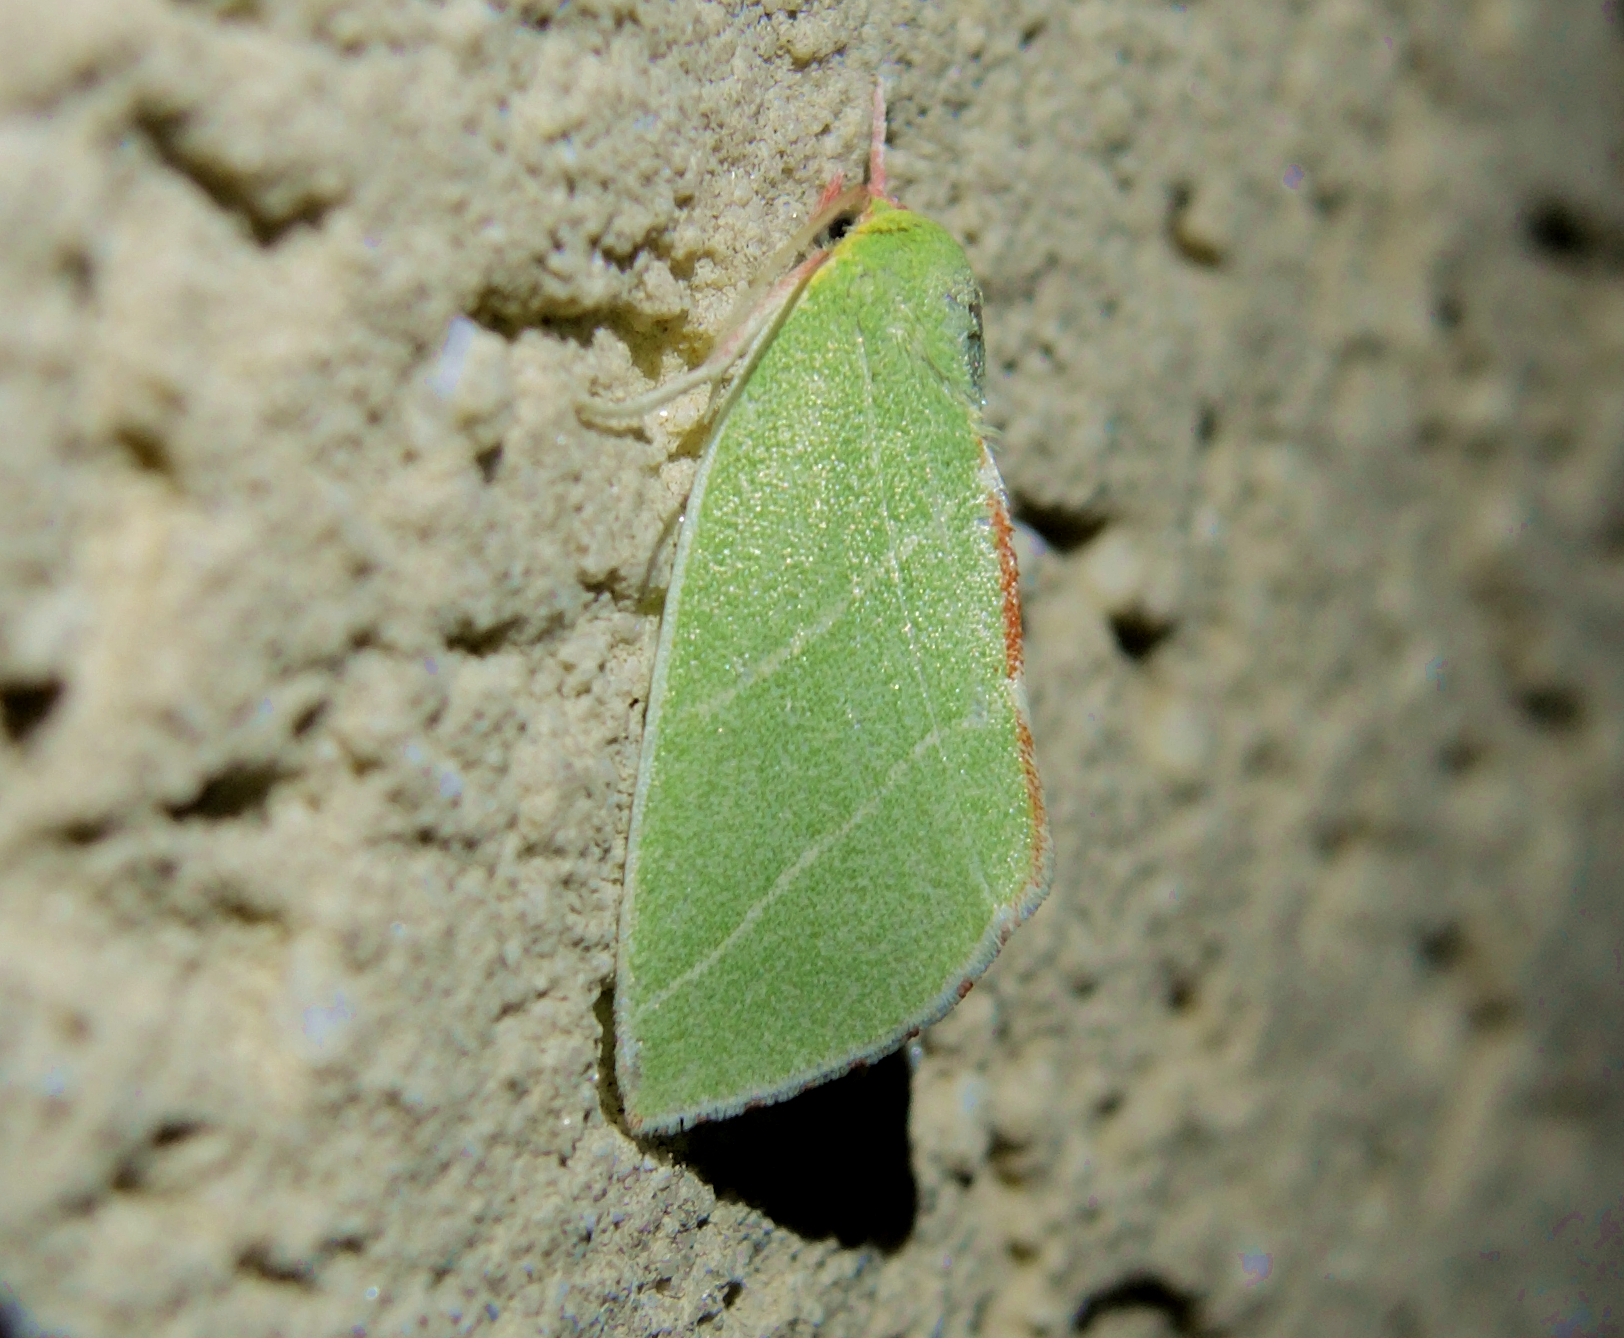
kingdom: Animalia
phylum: Arthropoda
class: Insecta
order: Lepidoptera
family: Nolidae
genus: Bena
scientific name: Bena bicolorana
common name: Scarce silver-lines
